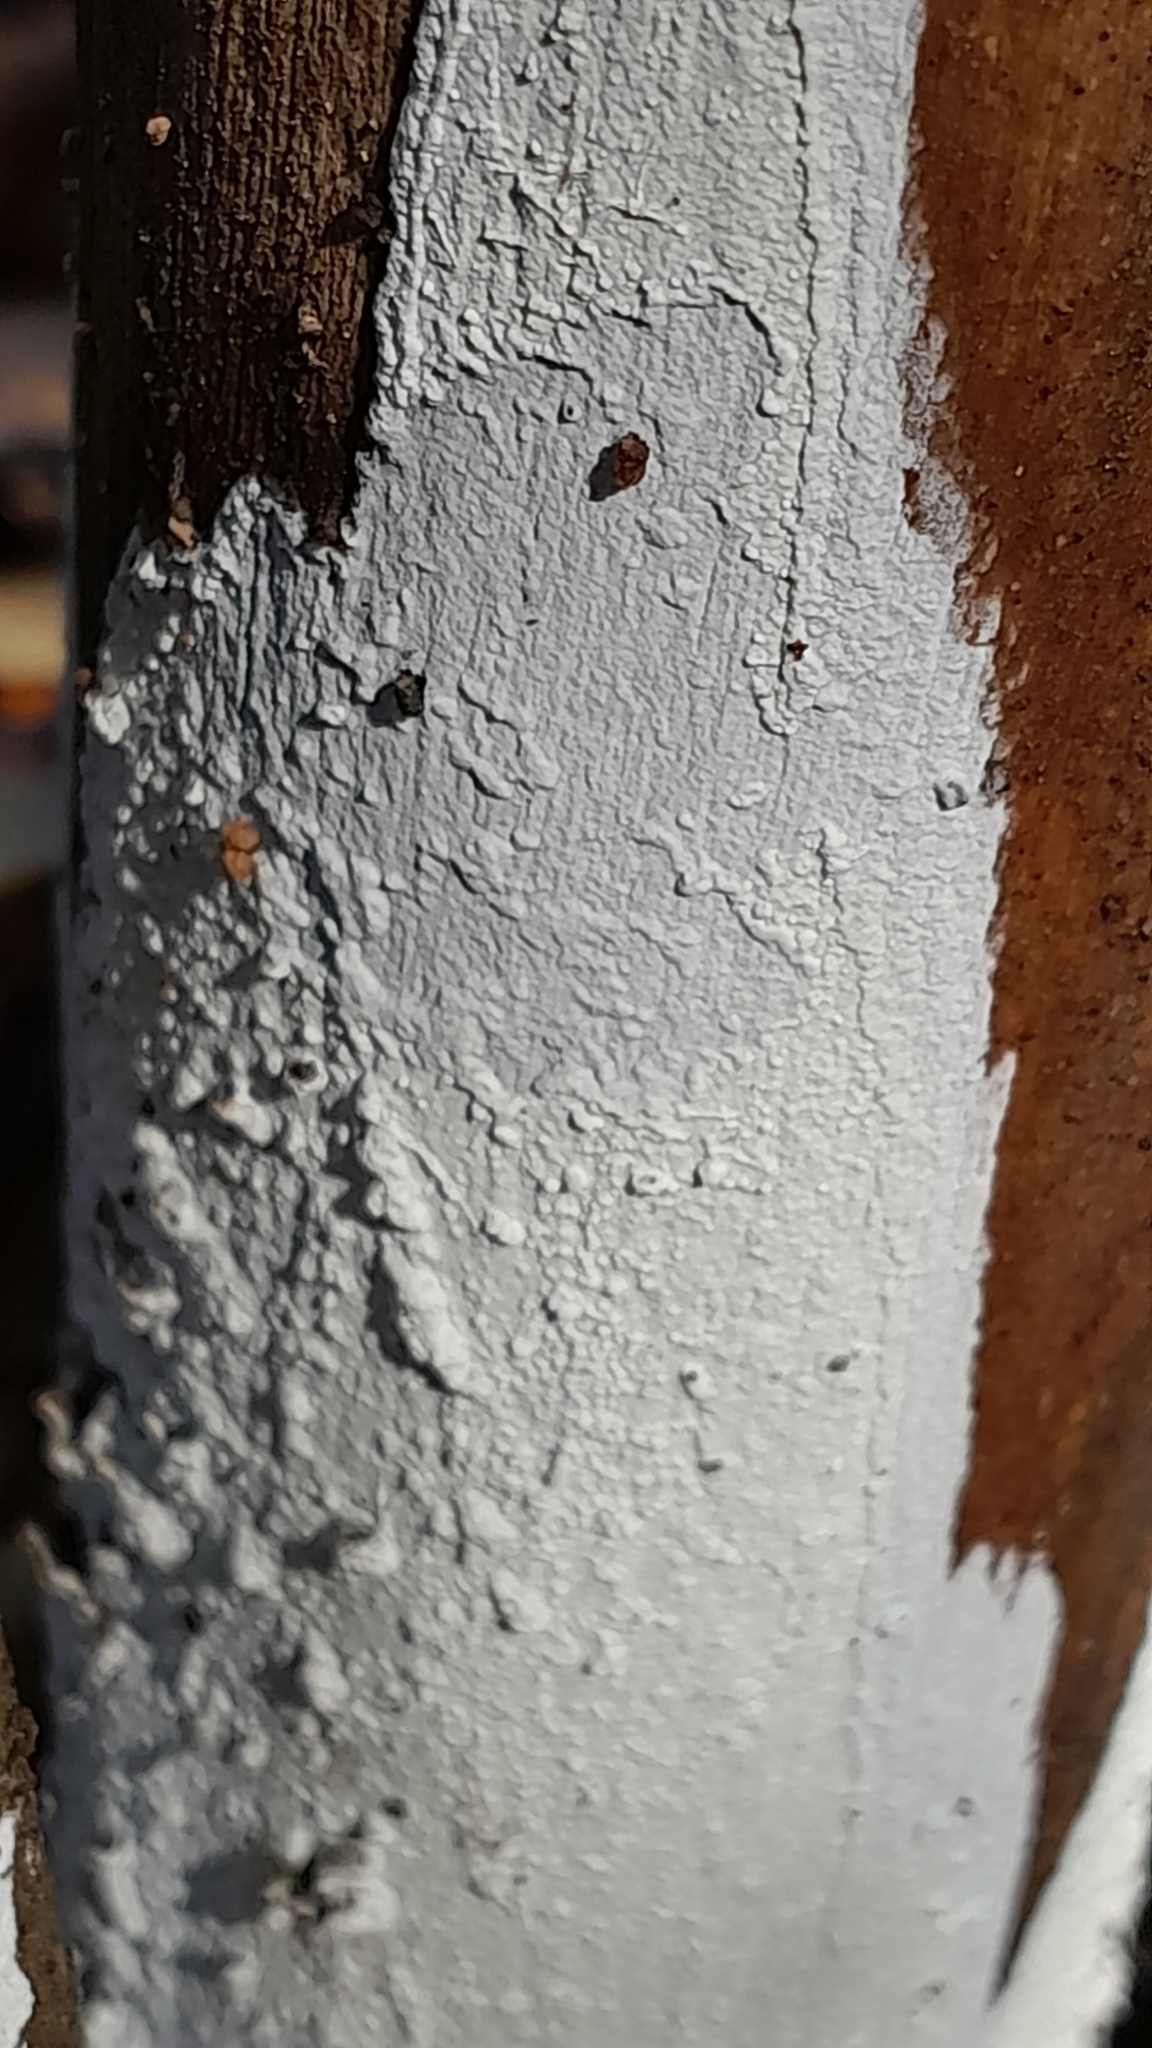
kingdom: Fungi
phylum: Basidiomycota
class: Agaricomycetes
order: Corticiales
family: Corticiaceae
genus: Lyomyces
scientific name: Lyomyces sambuci
